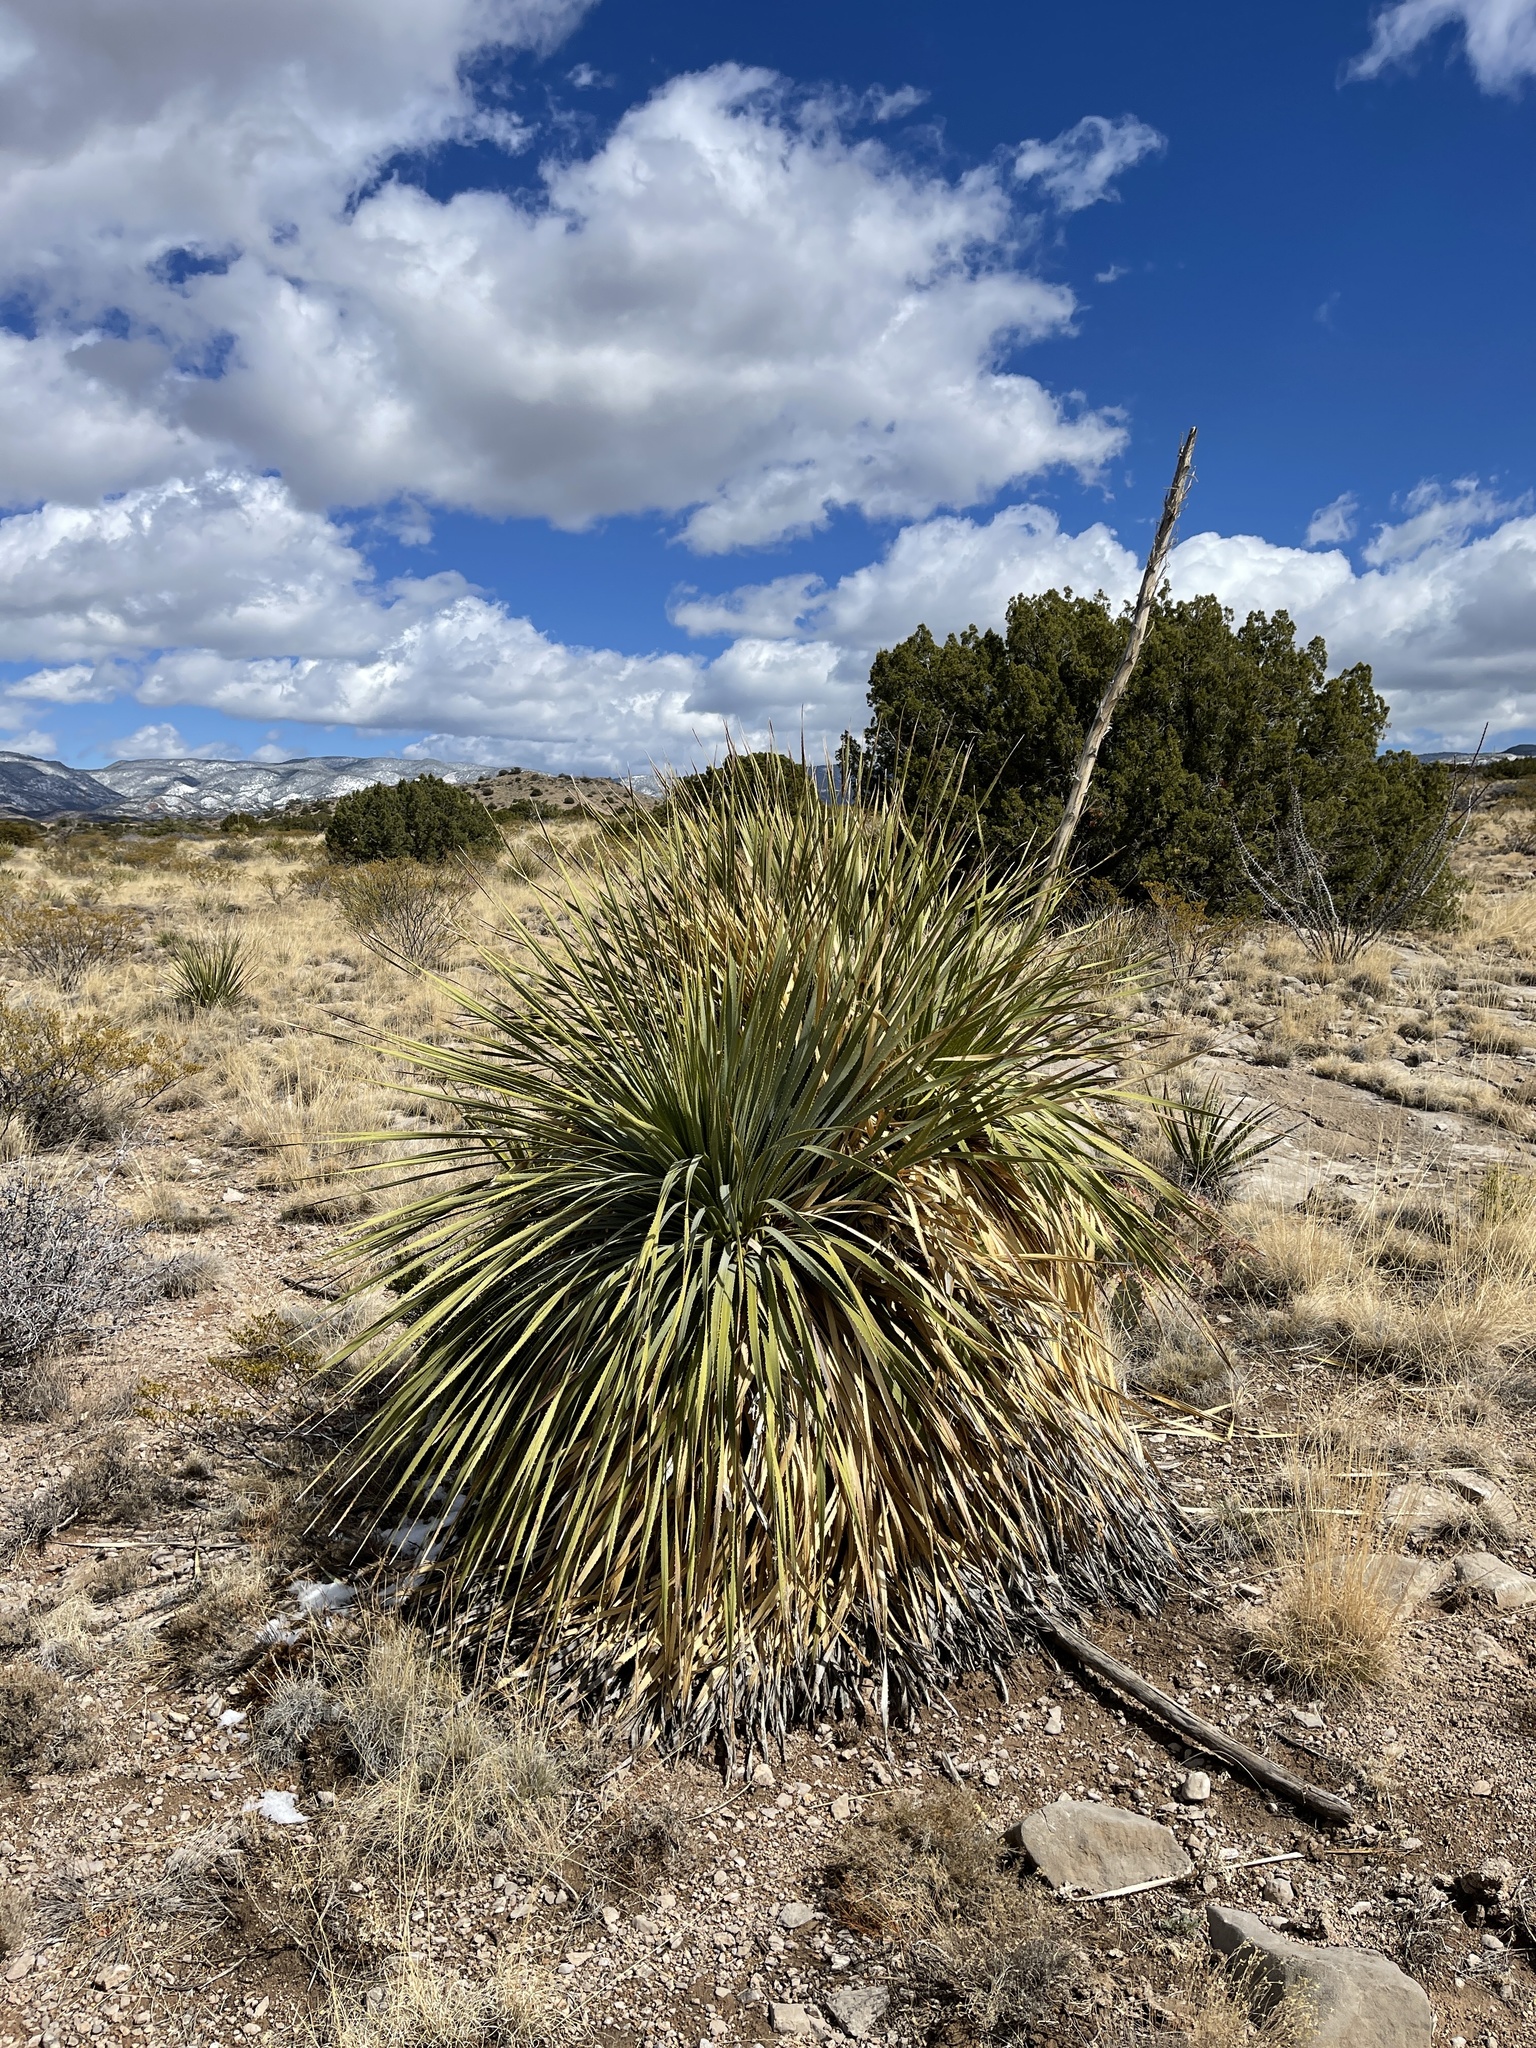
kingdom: Plantae
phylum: Tracheophyta
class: Liliopsida
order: Asparagales
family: Asparagaceae
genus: Dasylirion
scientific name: Dasylirion wheeleri
